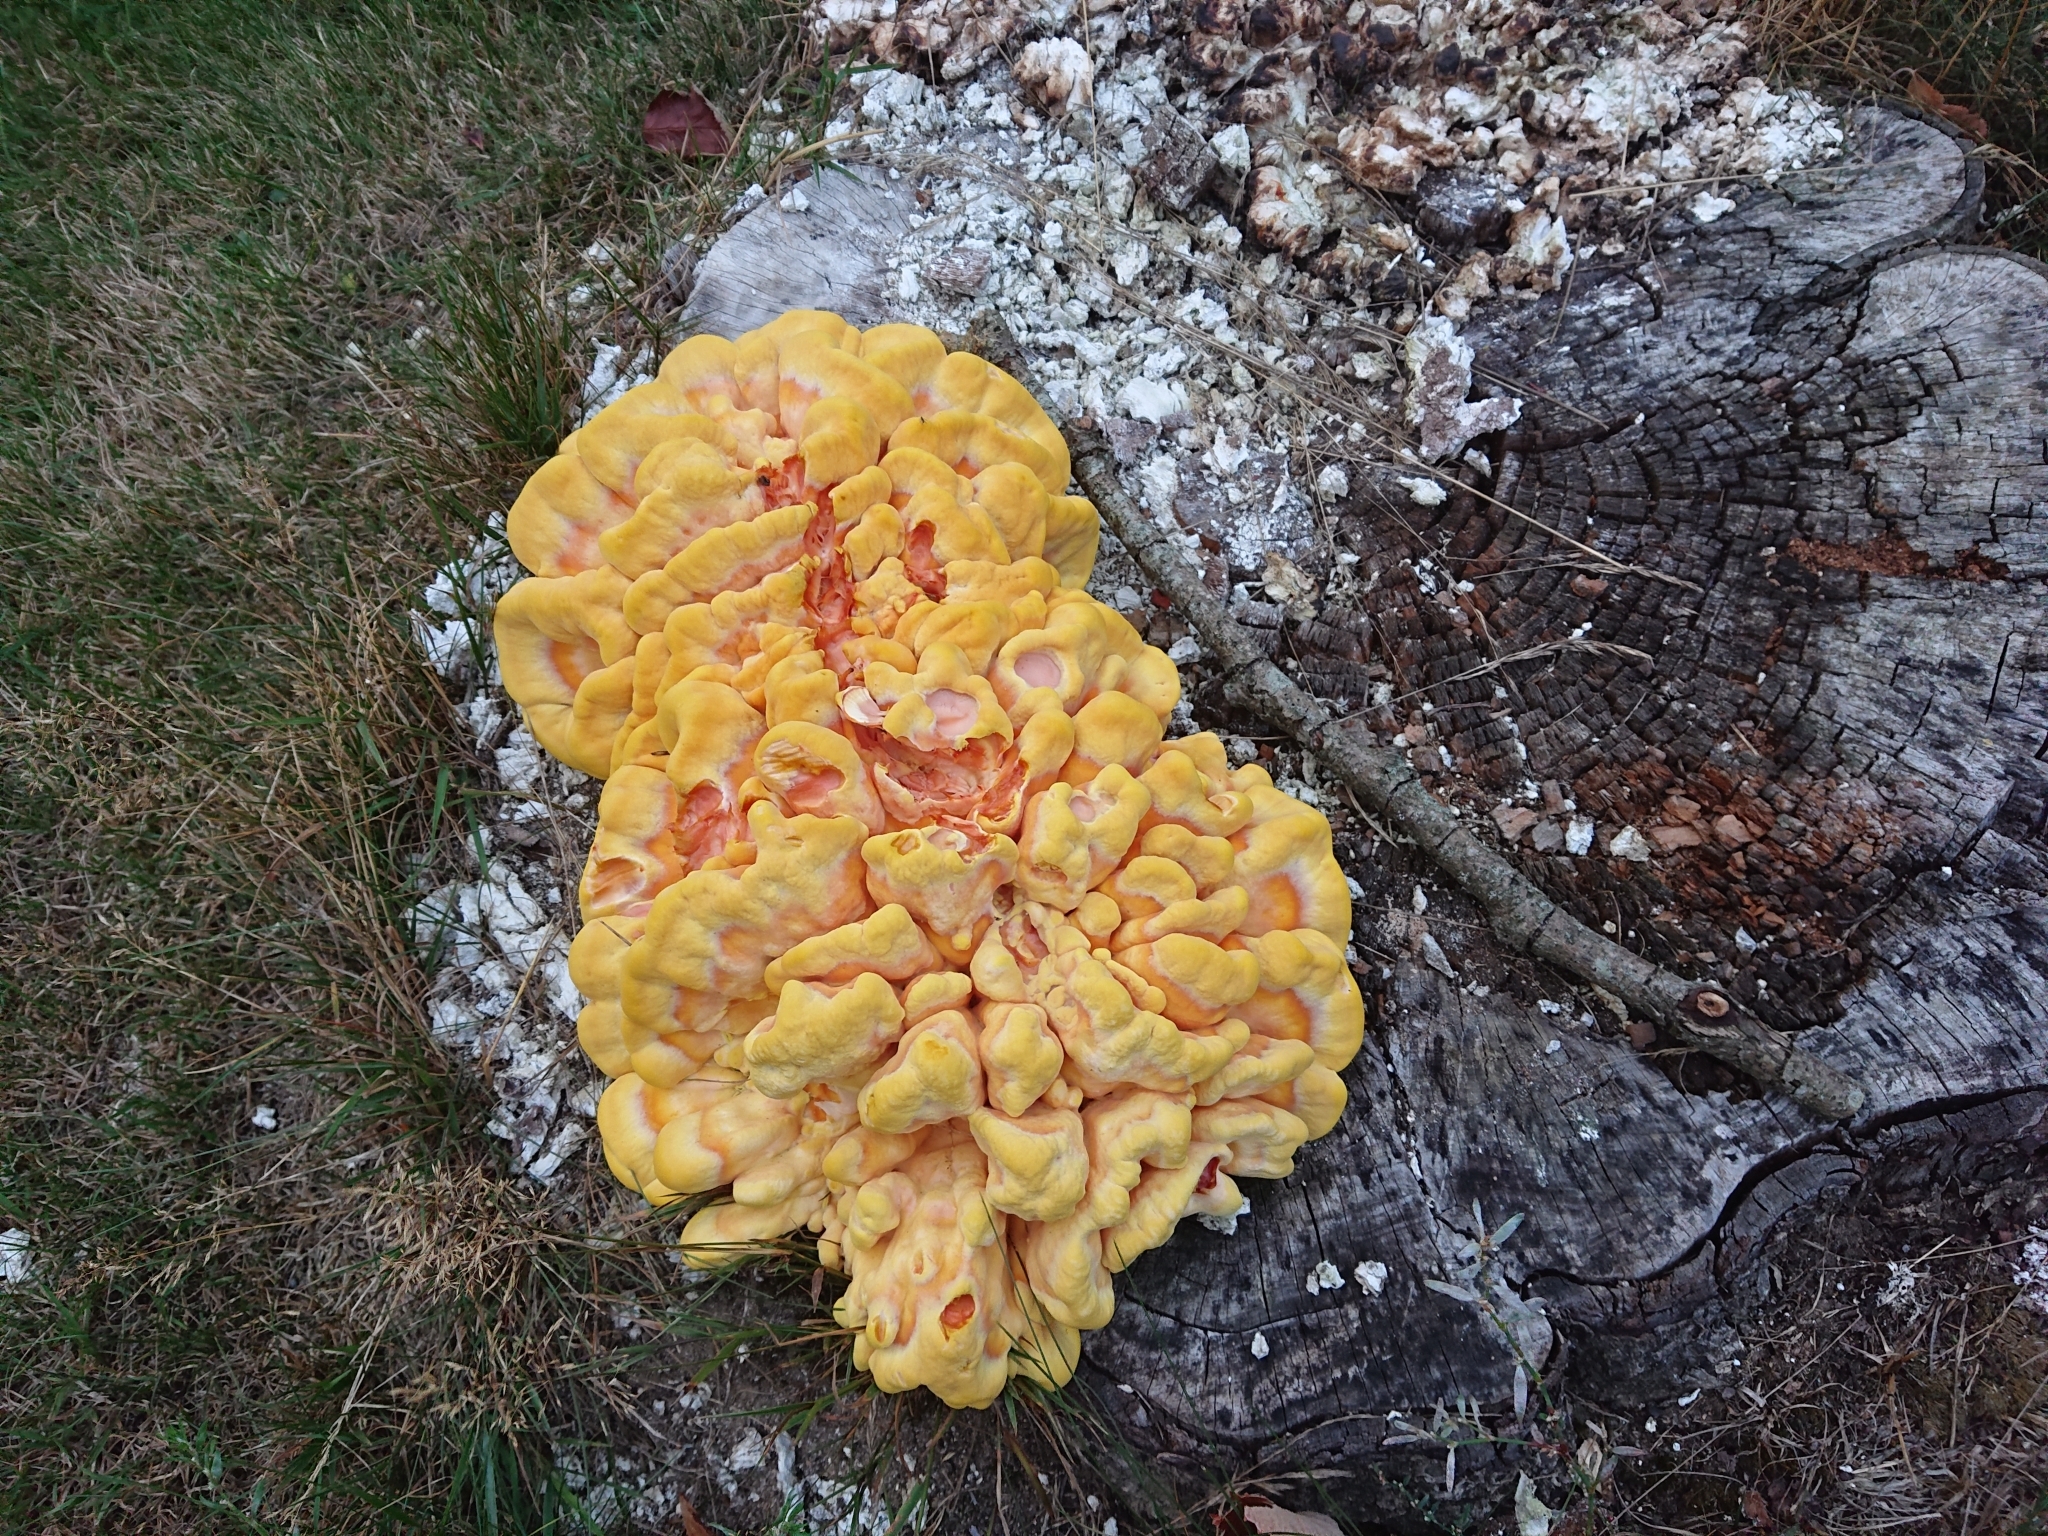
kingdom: Fungi
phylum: Basidiomycota
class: Agaricomycetes
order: Polyporales
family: Laetiporaceae
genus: Laetiporus
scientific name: Laetiporus sulphureus
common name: Chicken of the woods
